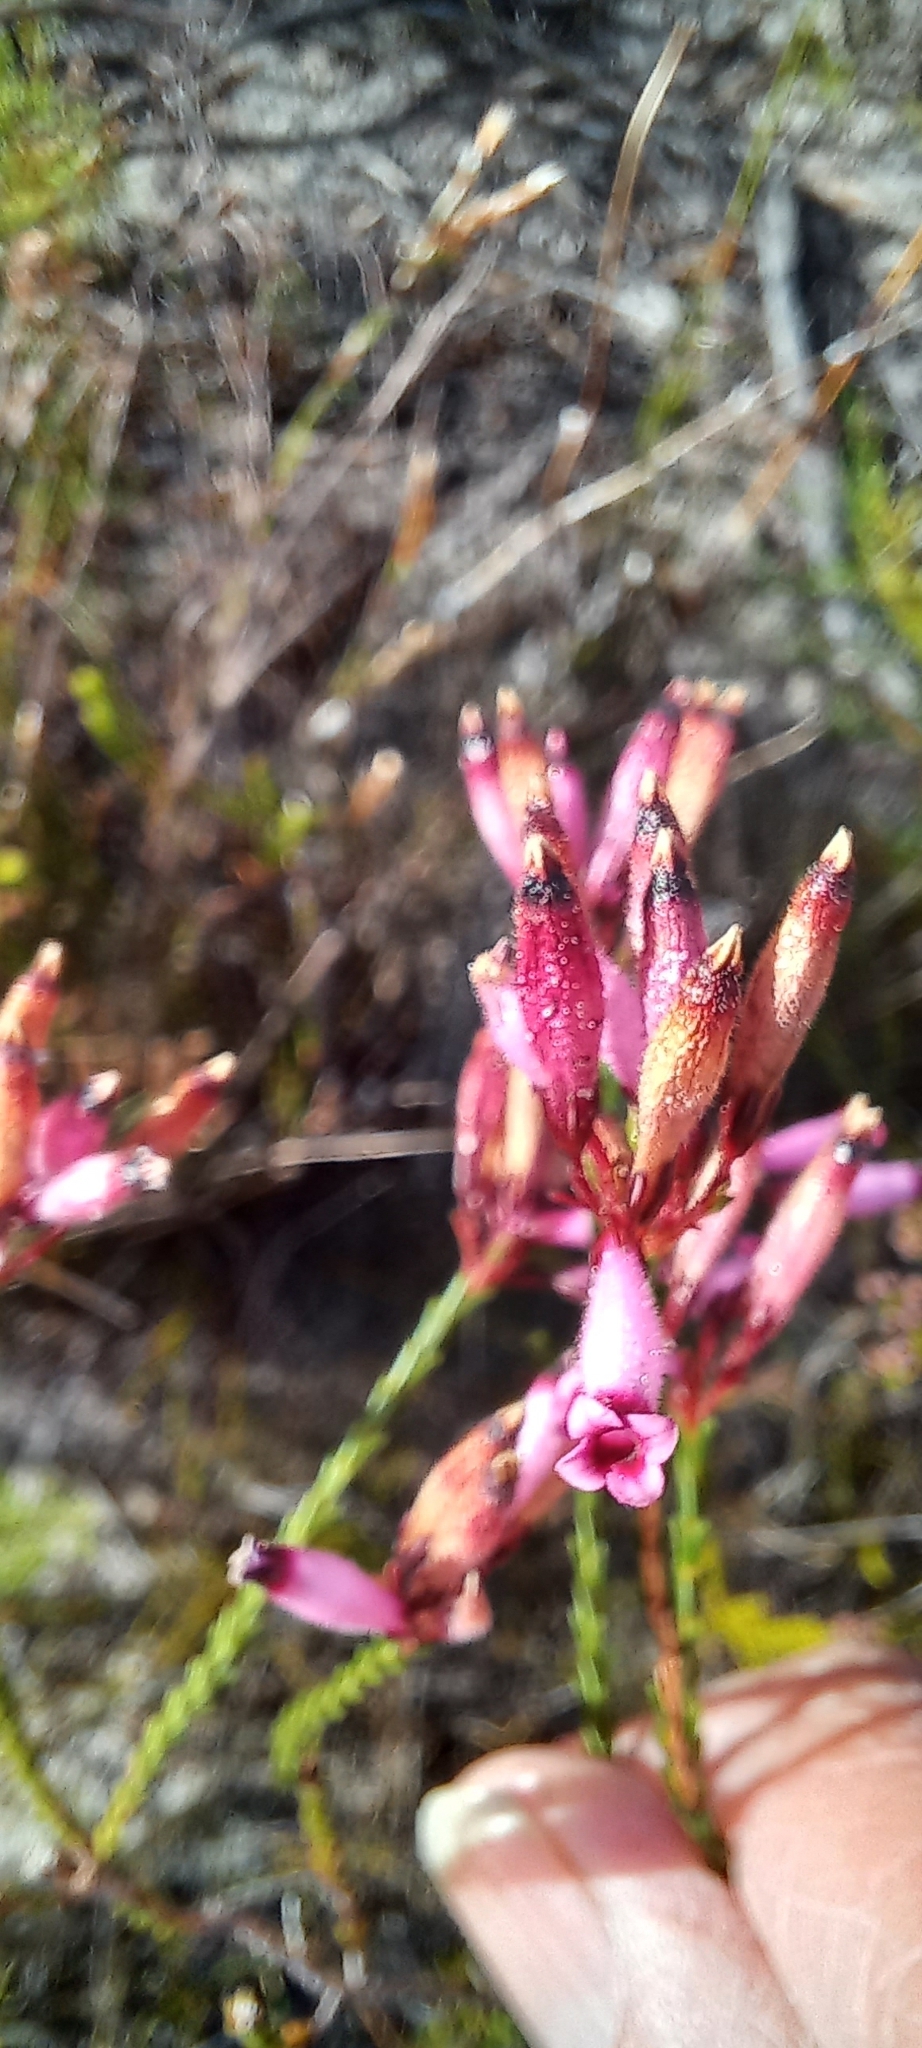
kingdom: Plantae
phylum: Tracheophyta
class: Magnoliopsida
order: Ericales
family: Ericaceae
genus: Erica
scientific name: Erica cristata
